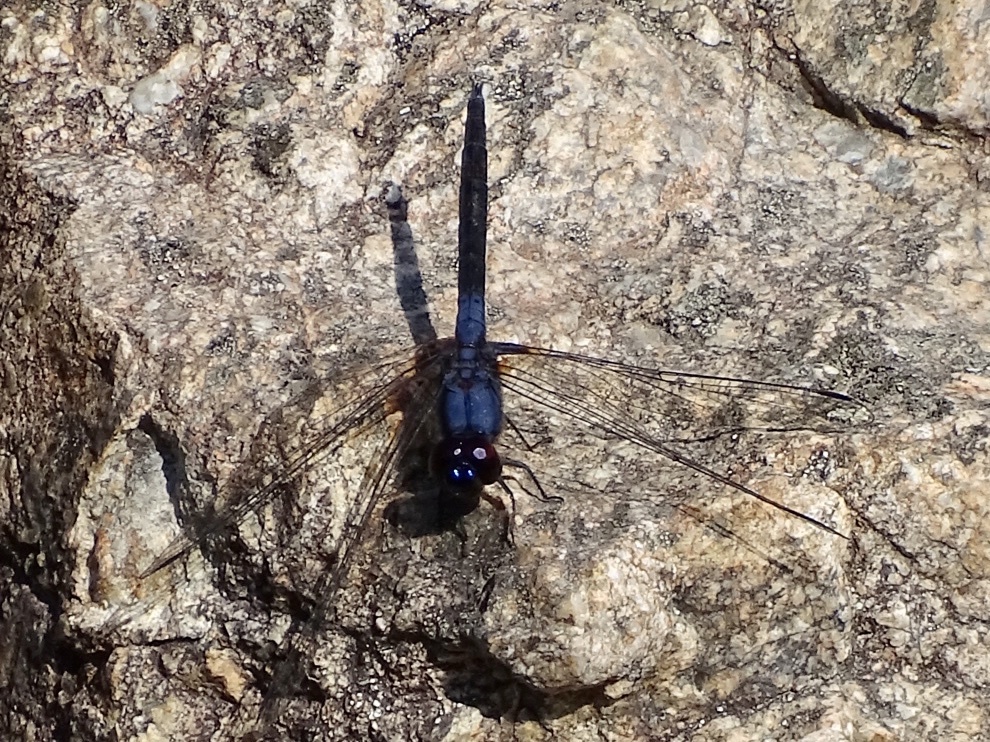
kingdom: Animalia
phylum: Arthropoda
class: Insecta
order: Odonata
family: Libellulidae
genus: Trithemis
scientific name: Trithemis festiva
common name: Indigo dropwing
